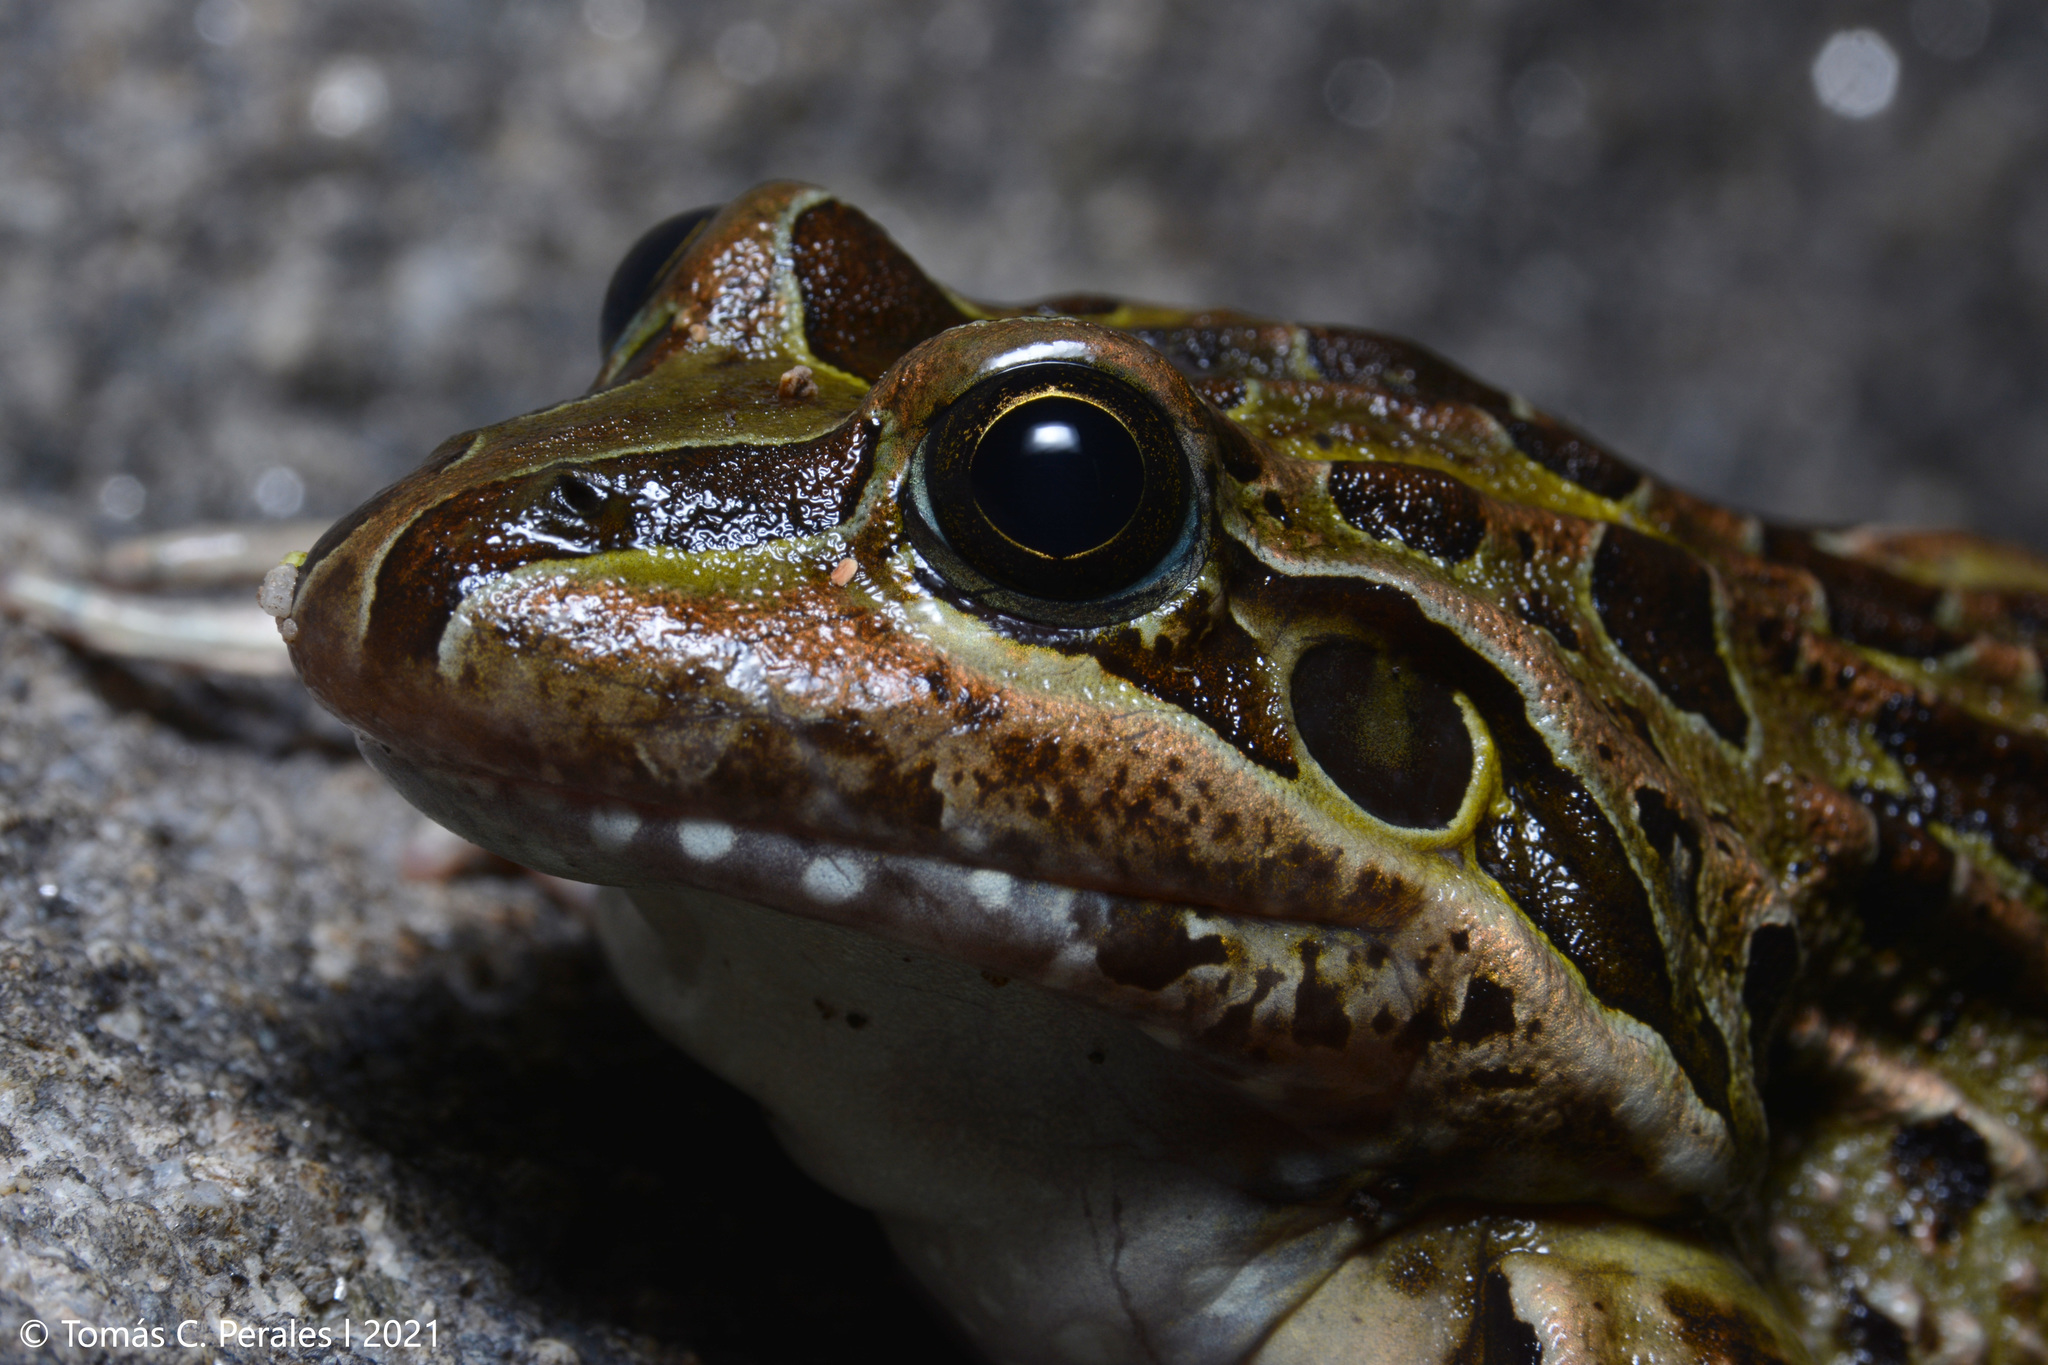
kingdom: Animalia
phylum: Chordata
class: Amphibia
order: Anura
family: Leptodactylidae
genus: Leptodactylus
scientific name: Leptodactylus luctator
